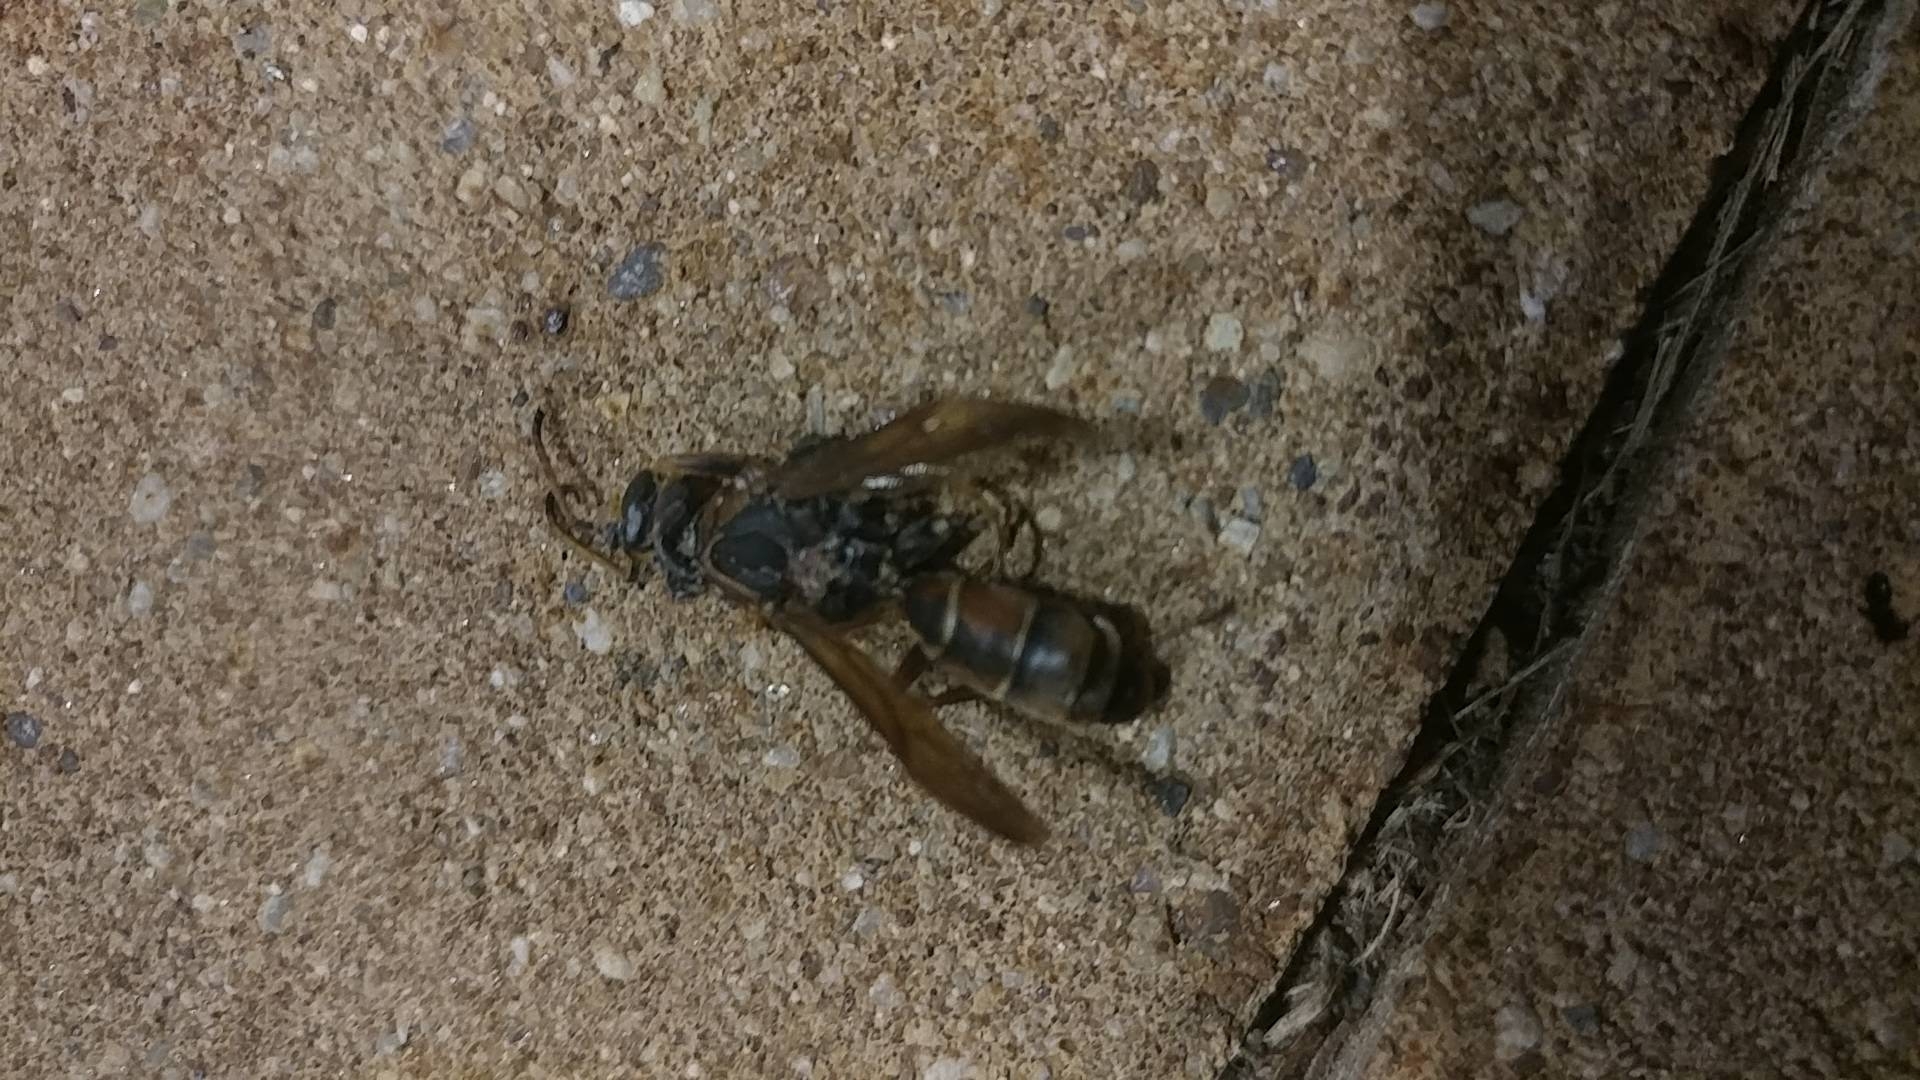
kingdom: Animalia
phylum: Arthropoda
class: Insecta
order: Hymenoptera
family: Eumenidae
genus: Polistes
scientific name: Polistes fuscatus
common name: Dark paper wasp
